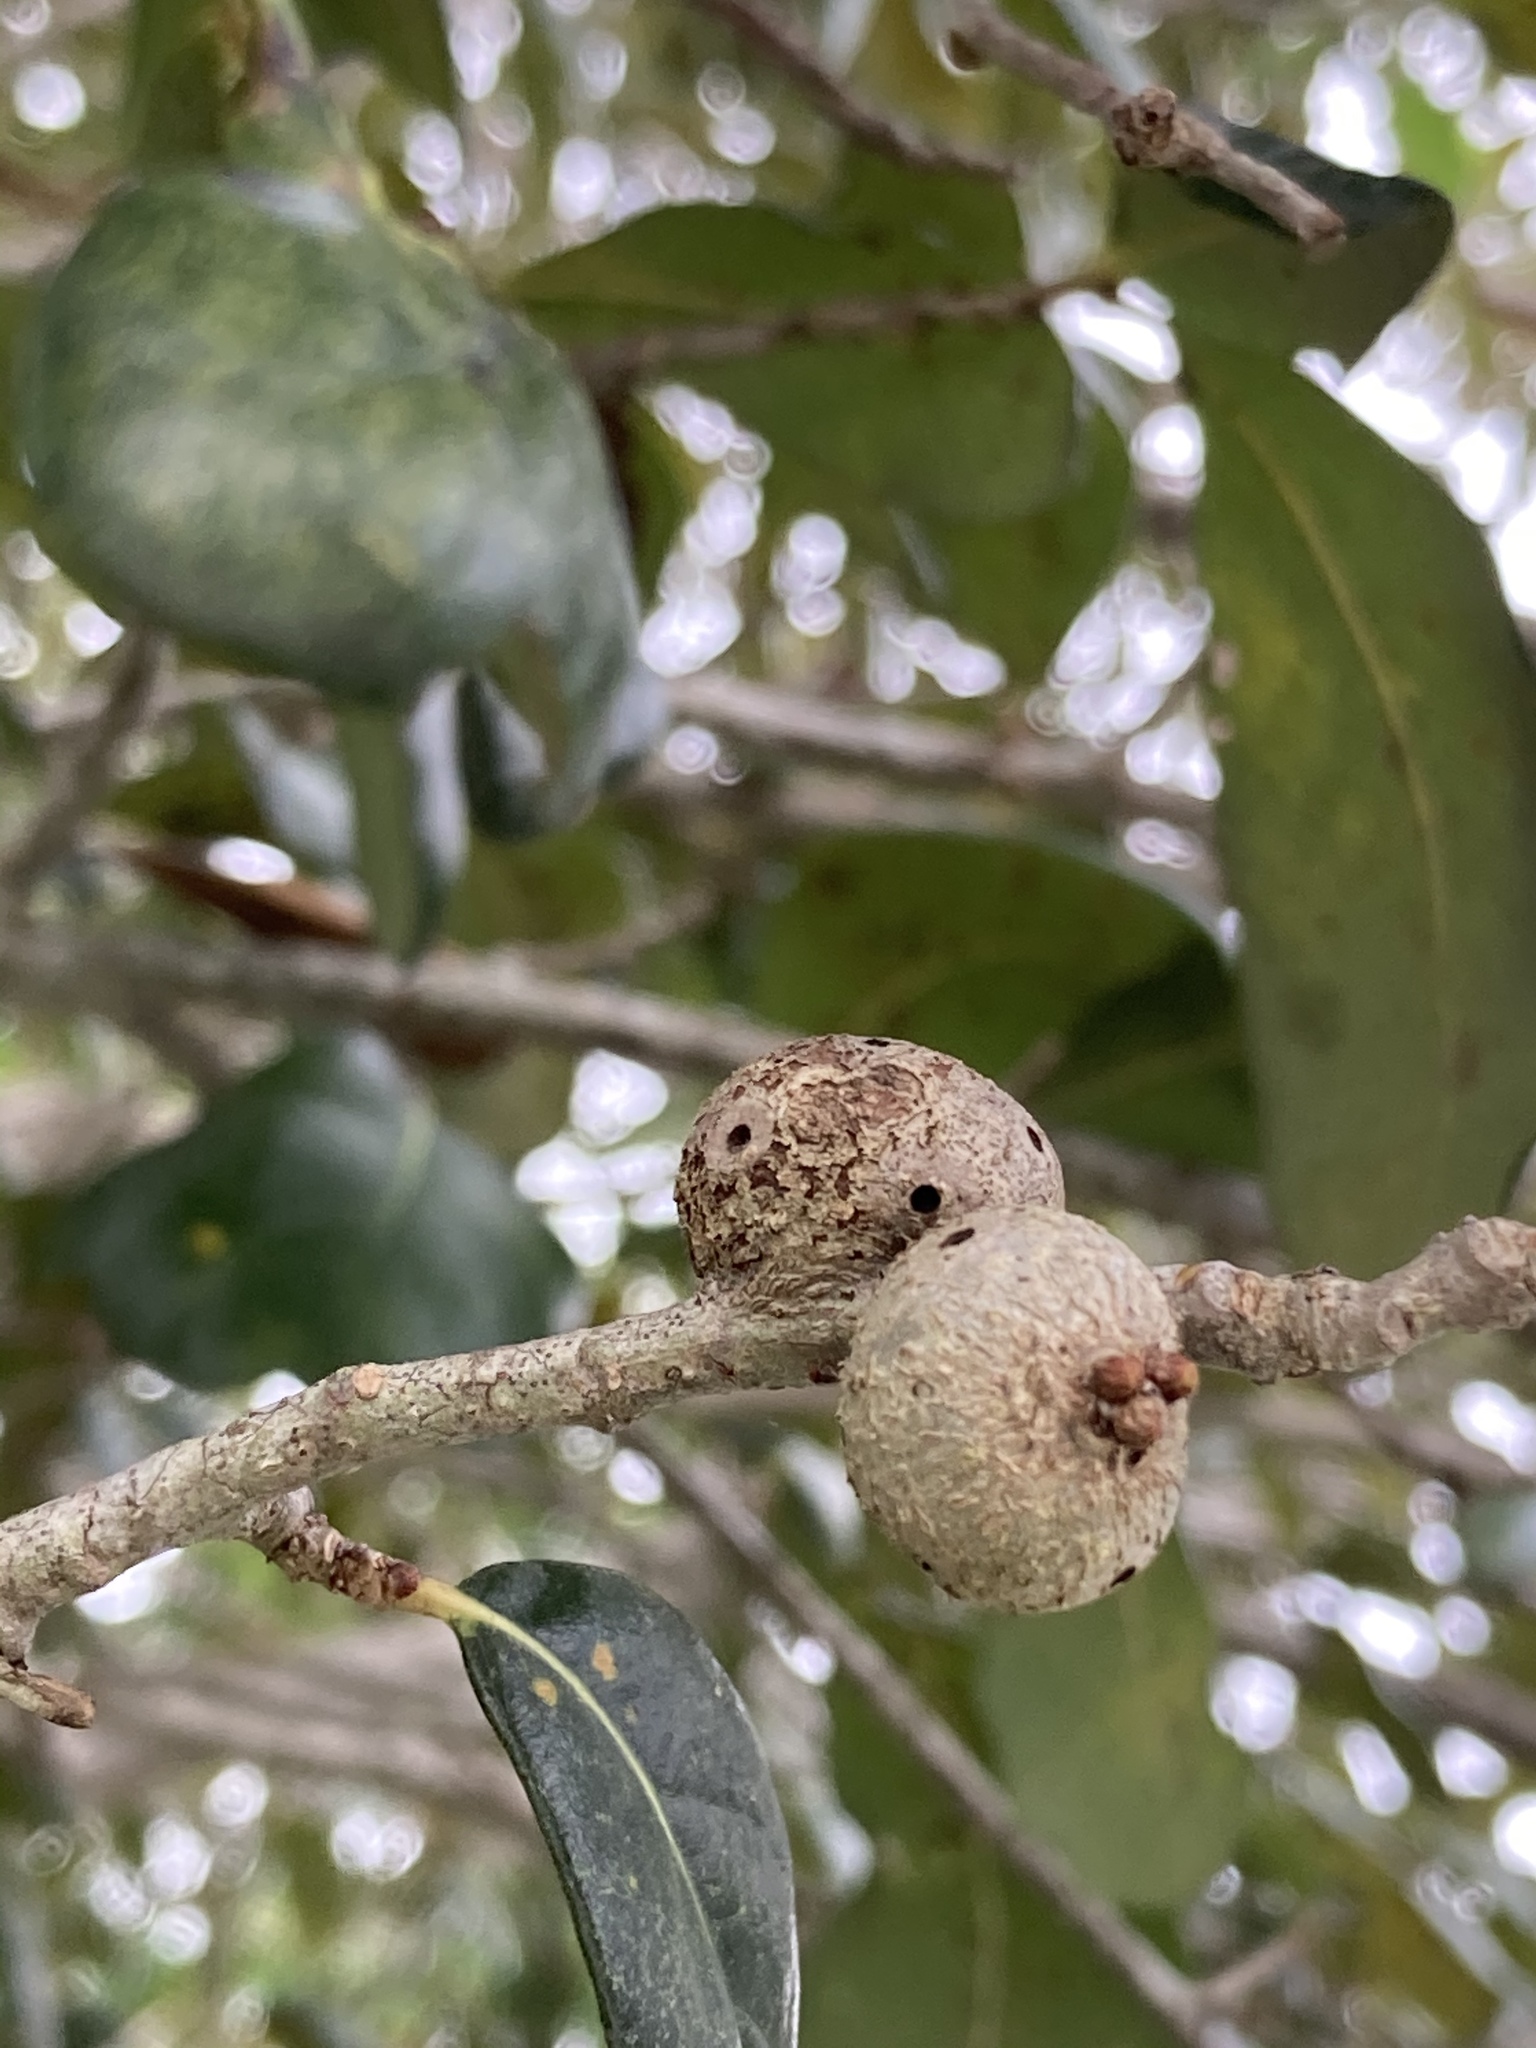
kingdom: Animalia
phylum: Arthropoda
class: Insecta
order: Hymenoptera
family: Cynipidae
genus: Callirhytis
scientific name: Callirhytis
